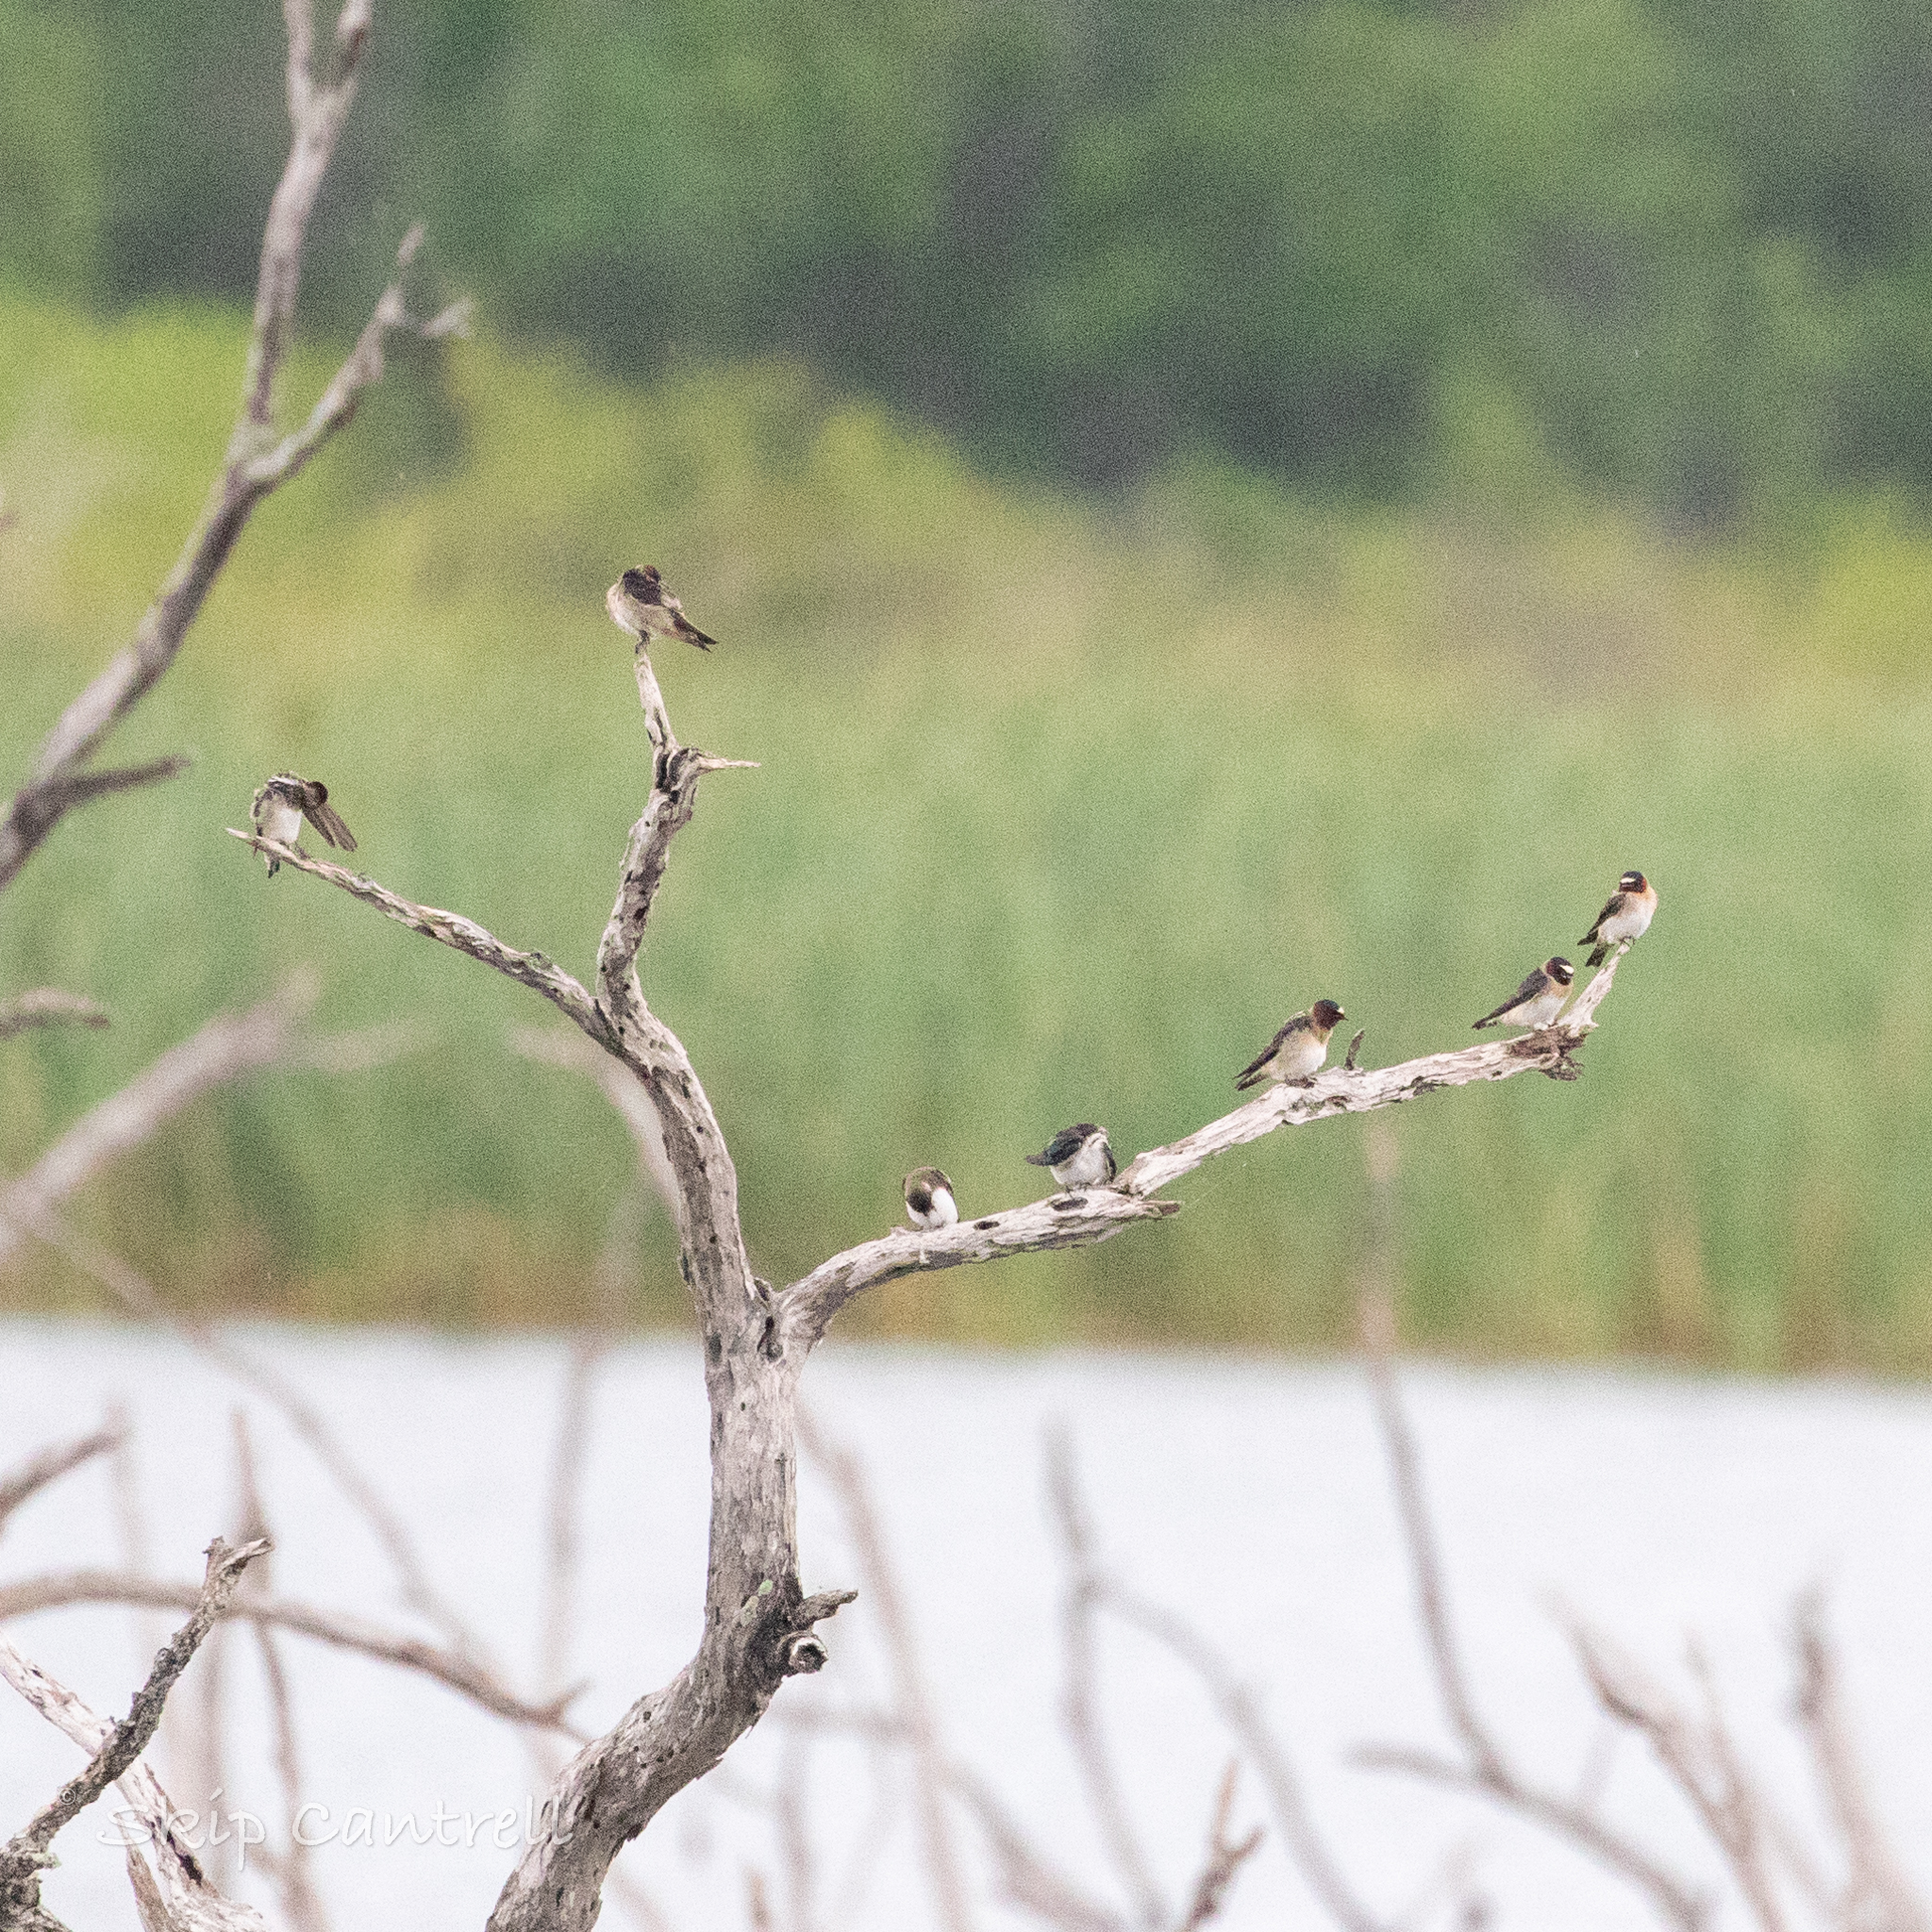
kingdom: Animalia
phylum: Chordata
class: Aves
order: Passeriformes
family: Hirundinidae
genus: Petrochelidon
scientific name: Petrochelidon pyrrhonota
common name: American cliff swallow
